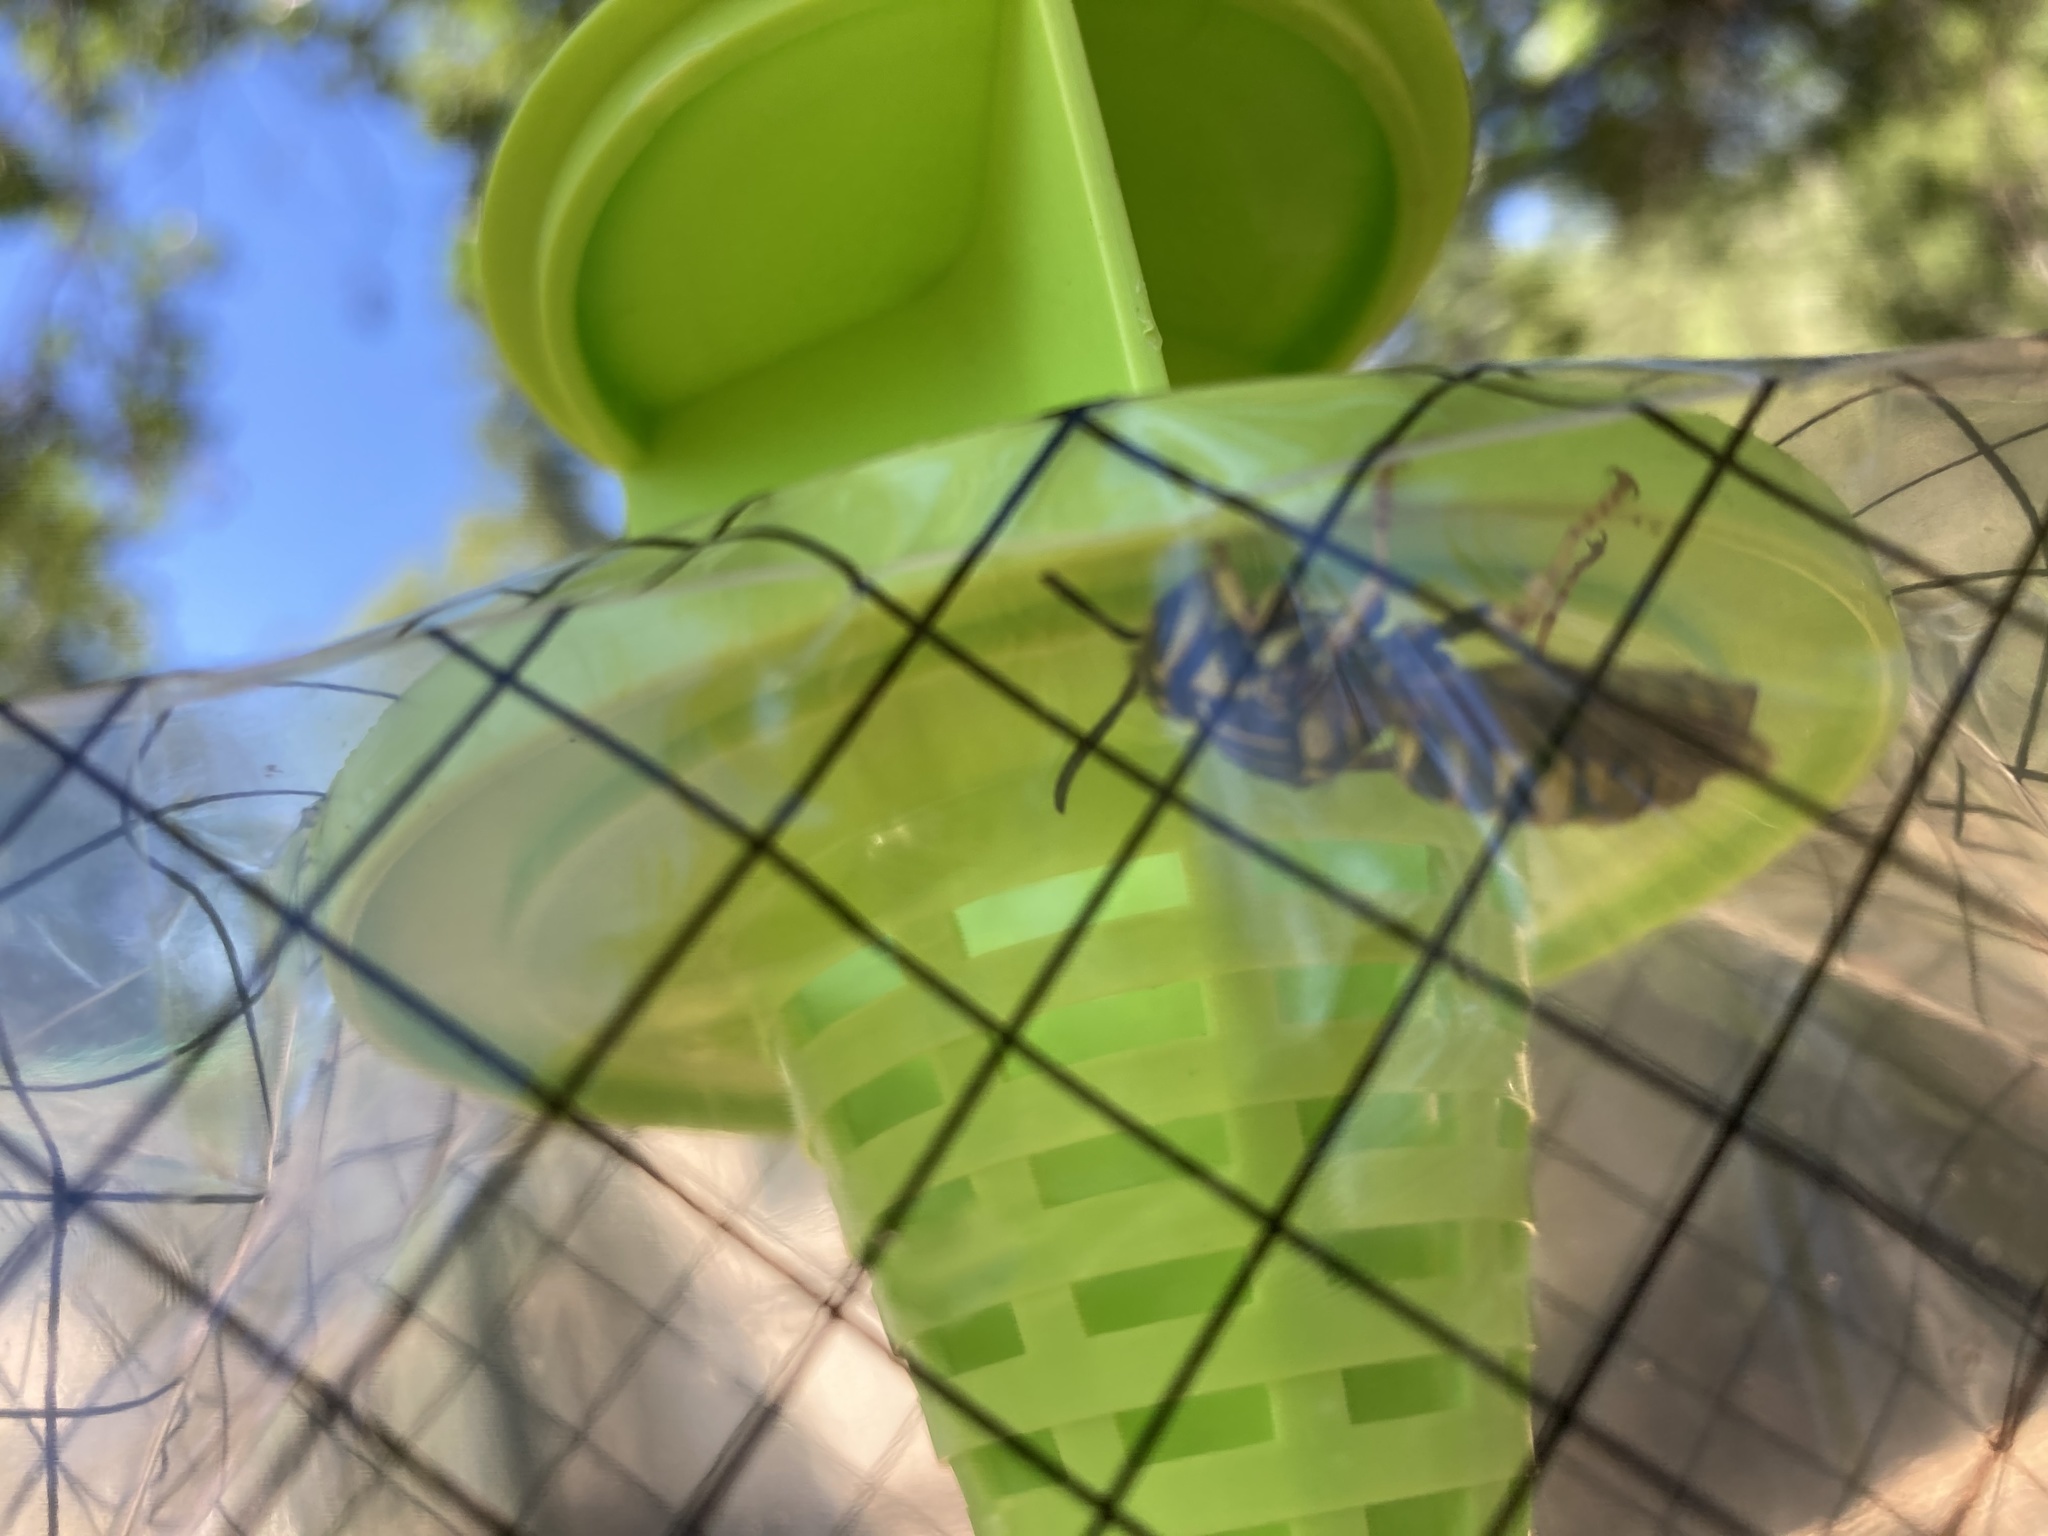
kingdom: Animalia
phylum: Arthropoda
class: Insecta
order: Hymenoptera
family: Vespidae
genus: Vespula
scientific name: Vespula sulphurea
